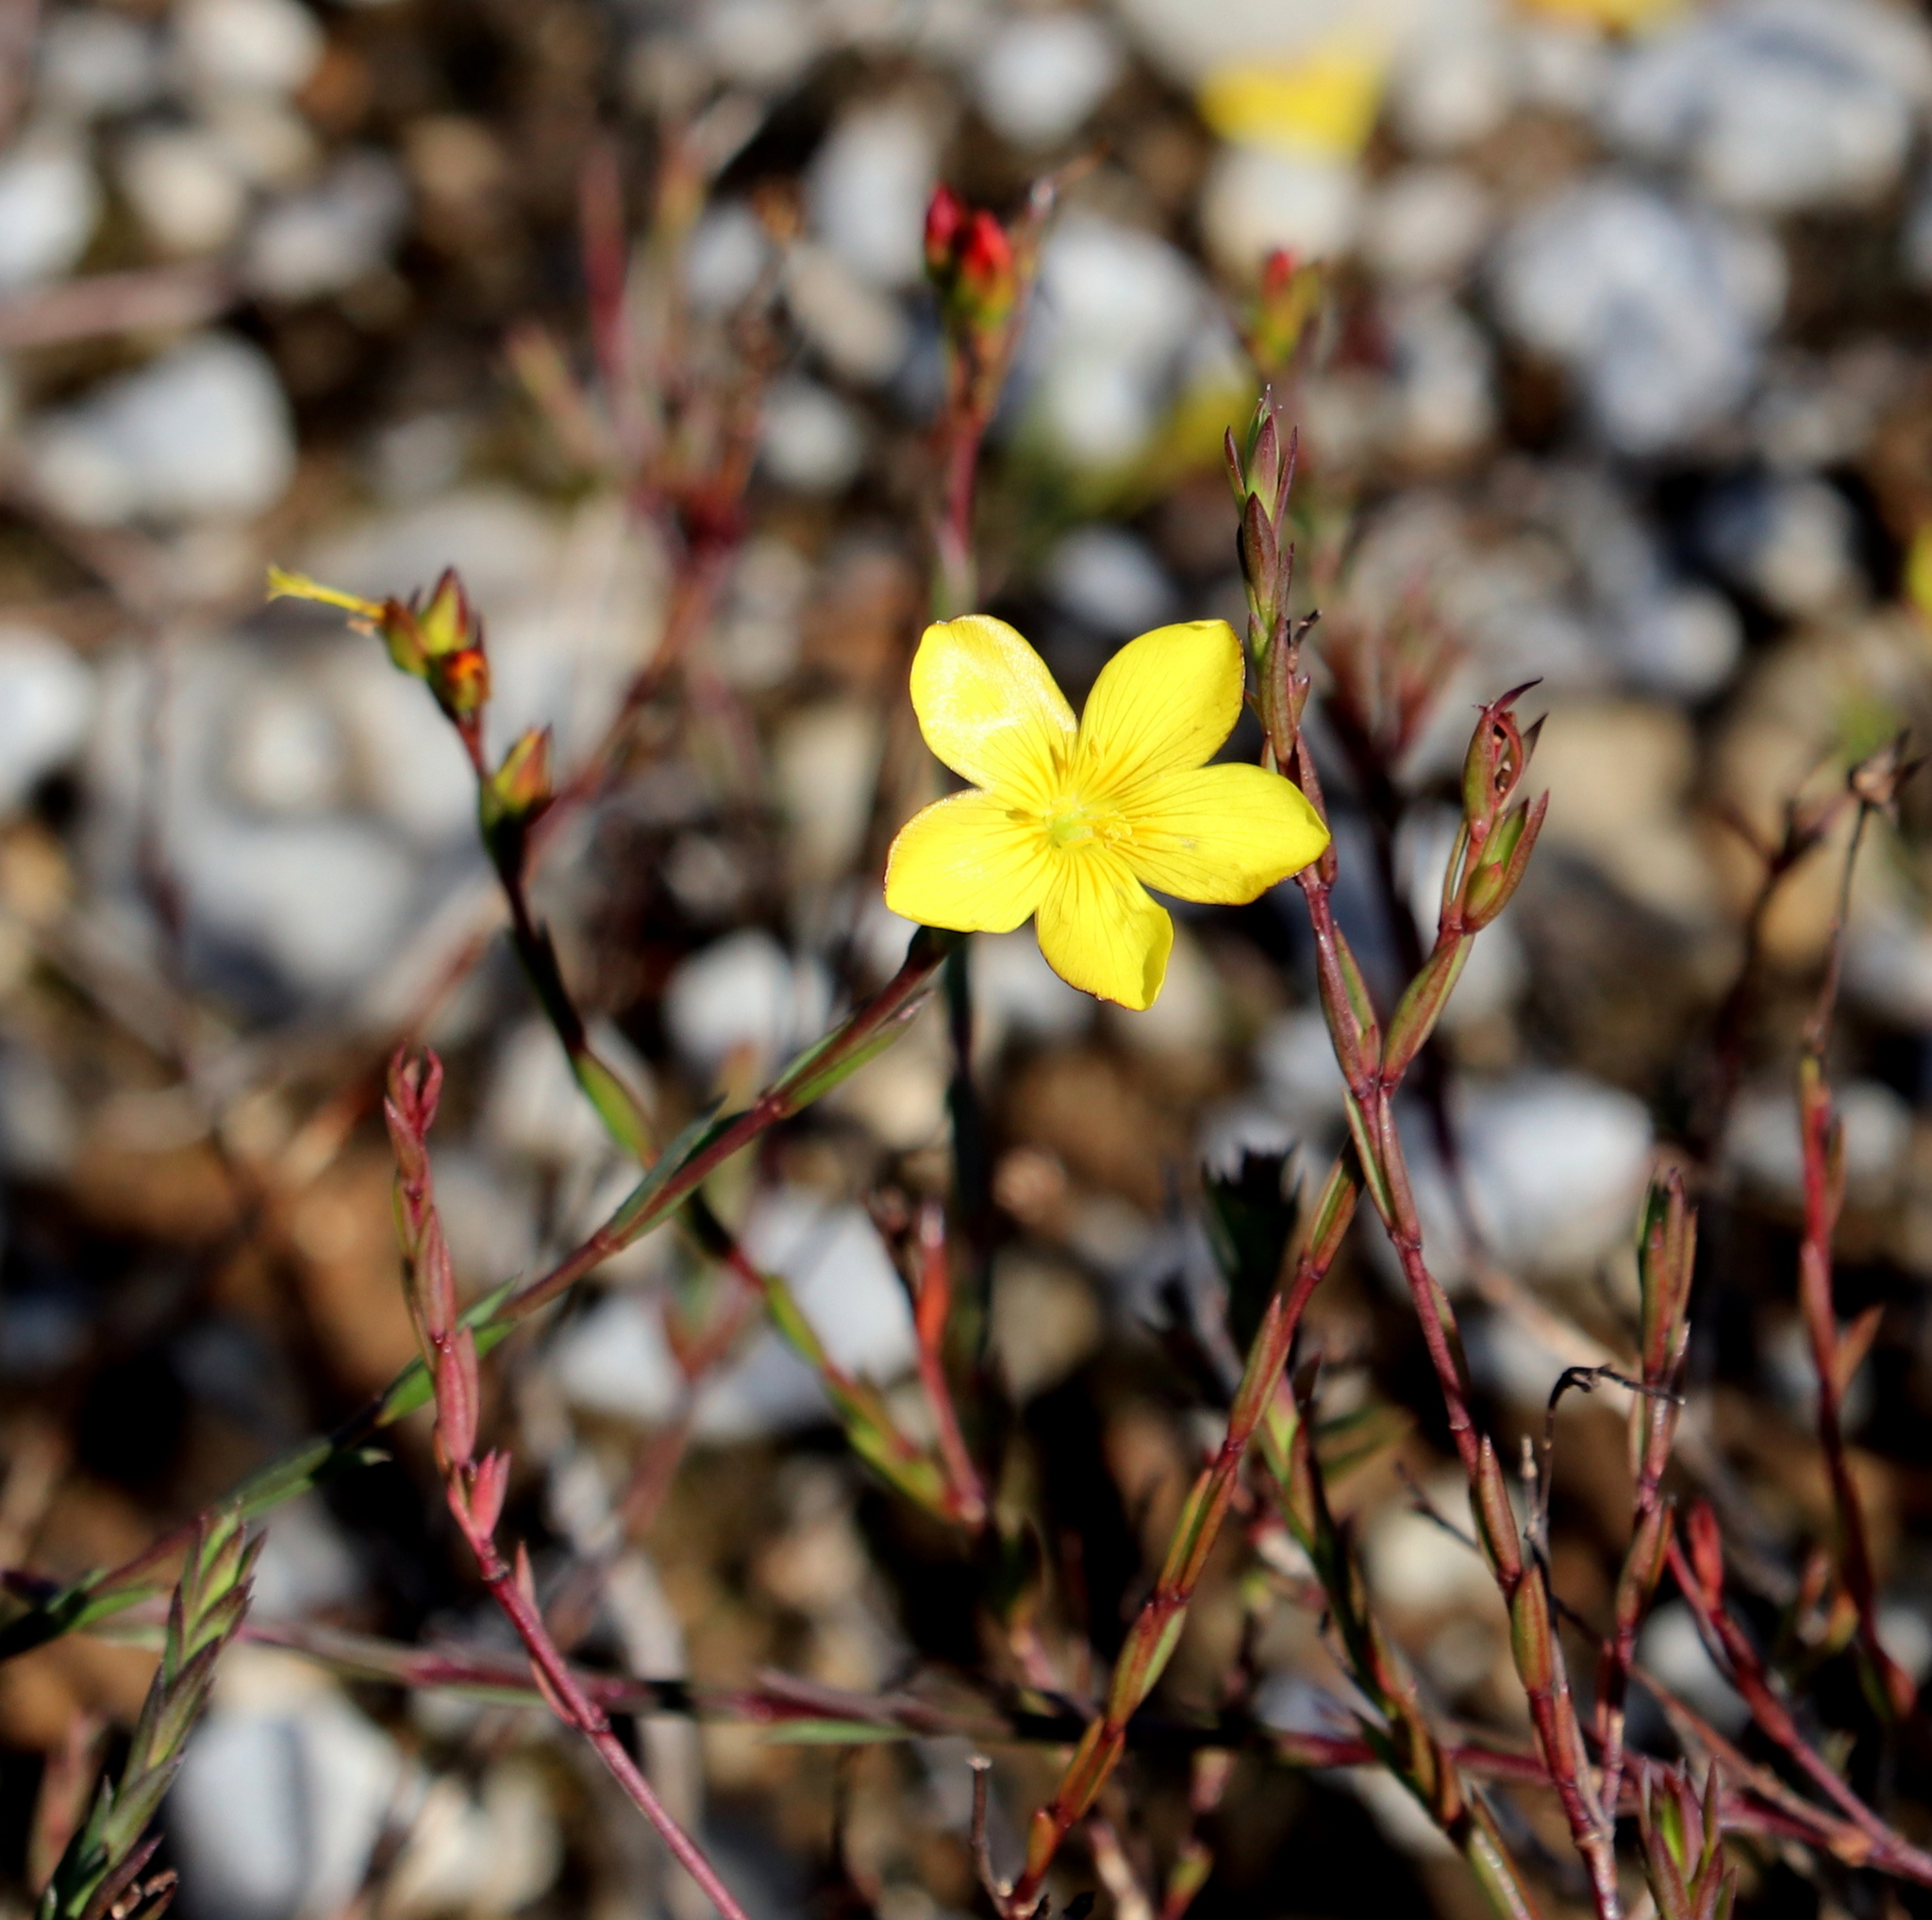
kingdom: Plantae
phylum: Tracheophyta
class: Magnoliopsida
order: Malpighiales
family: Linaceae
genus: Linum
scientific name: Linum africanum
